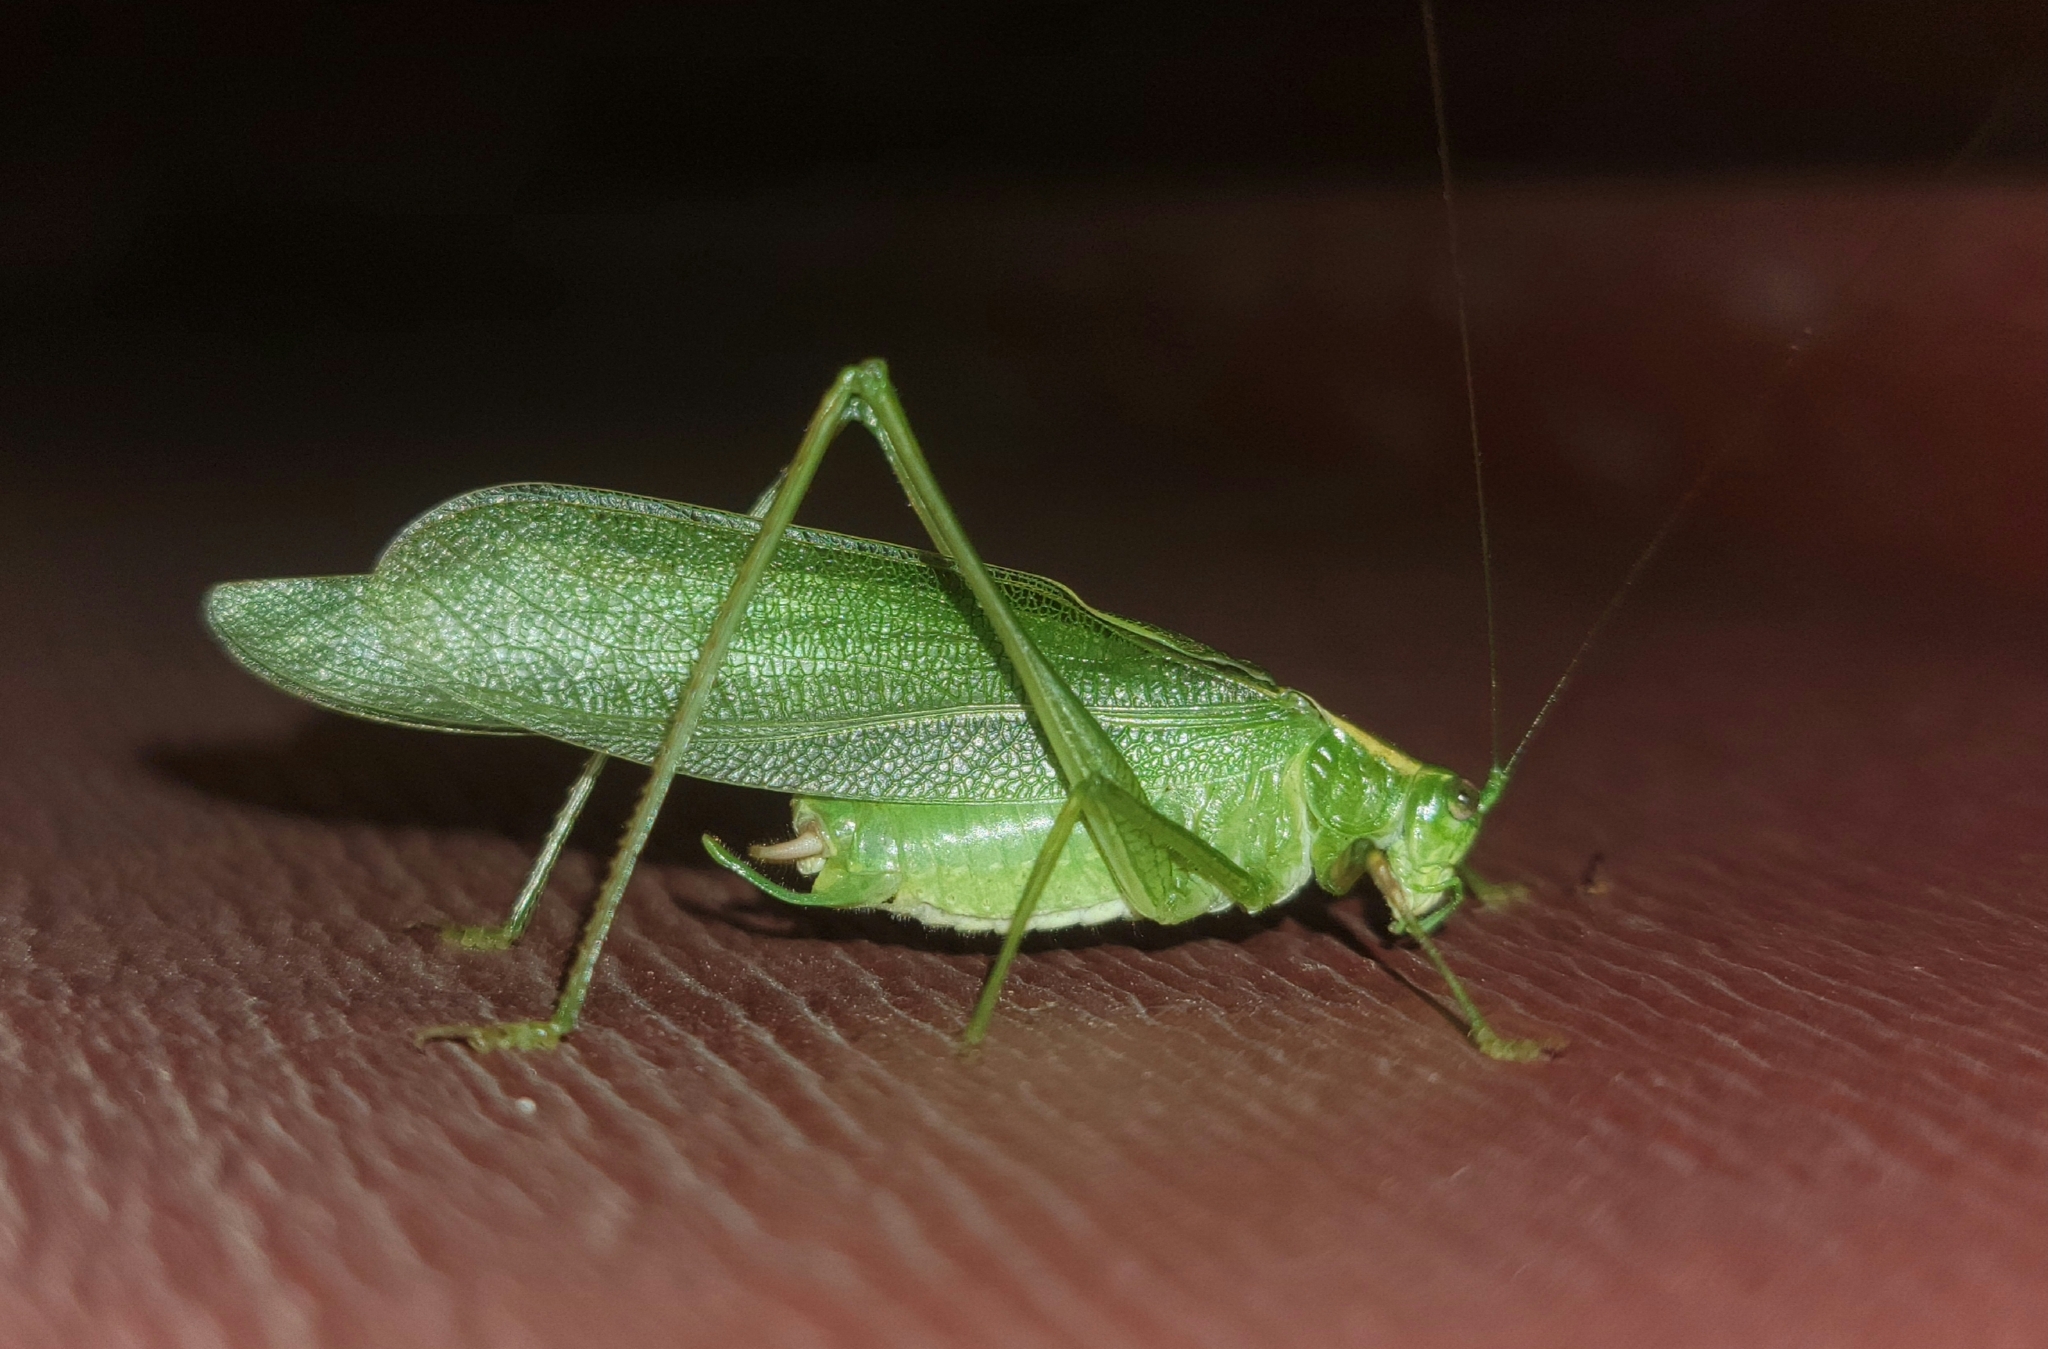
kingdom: Animalia
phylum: Arthropoda
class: Insecta
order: Orthoptera
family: Tettigoniidae
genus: Scudderia
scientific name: Scudderia septentrionalis
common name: Northern bush-katydid
